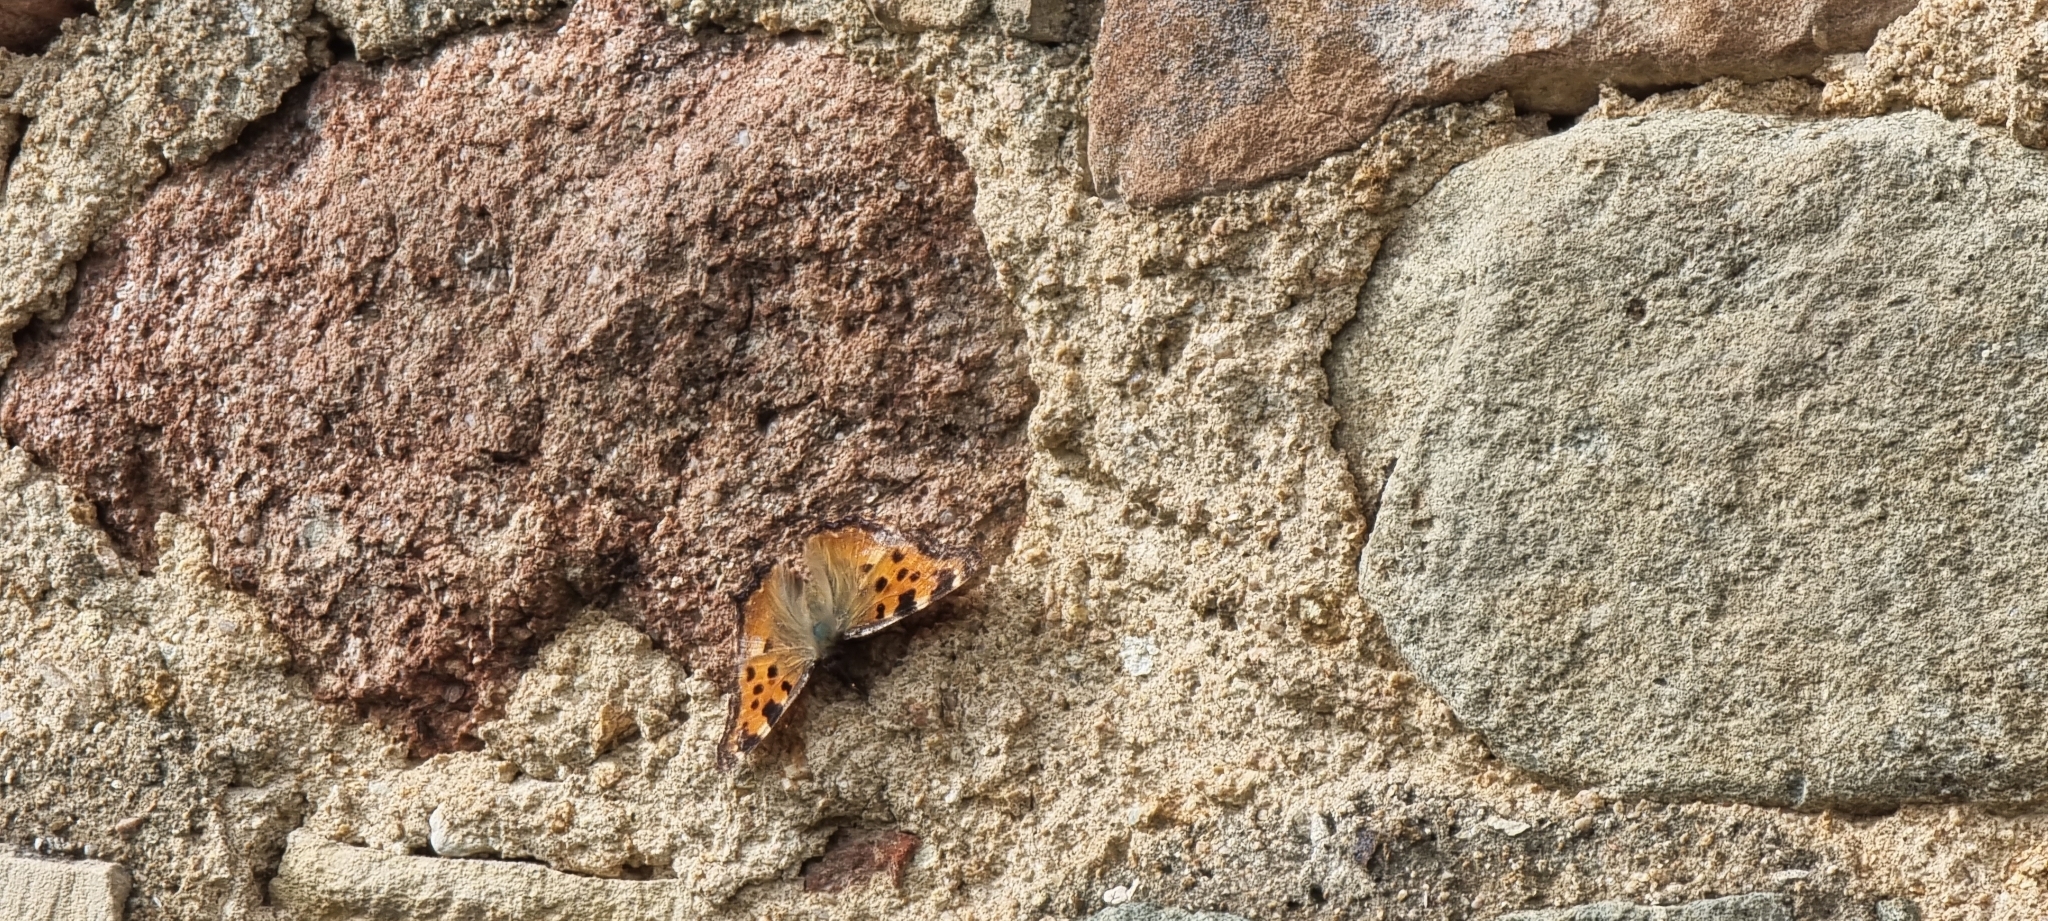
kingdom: Animalia
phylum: Arthropoda
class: Insecta
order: Lepidoptera
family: Nymphalidae
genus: Nymphalis
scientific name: Nymphalis polychloros
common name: Large tortoiseshell
